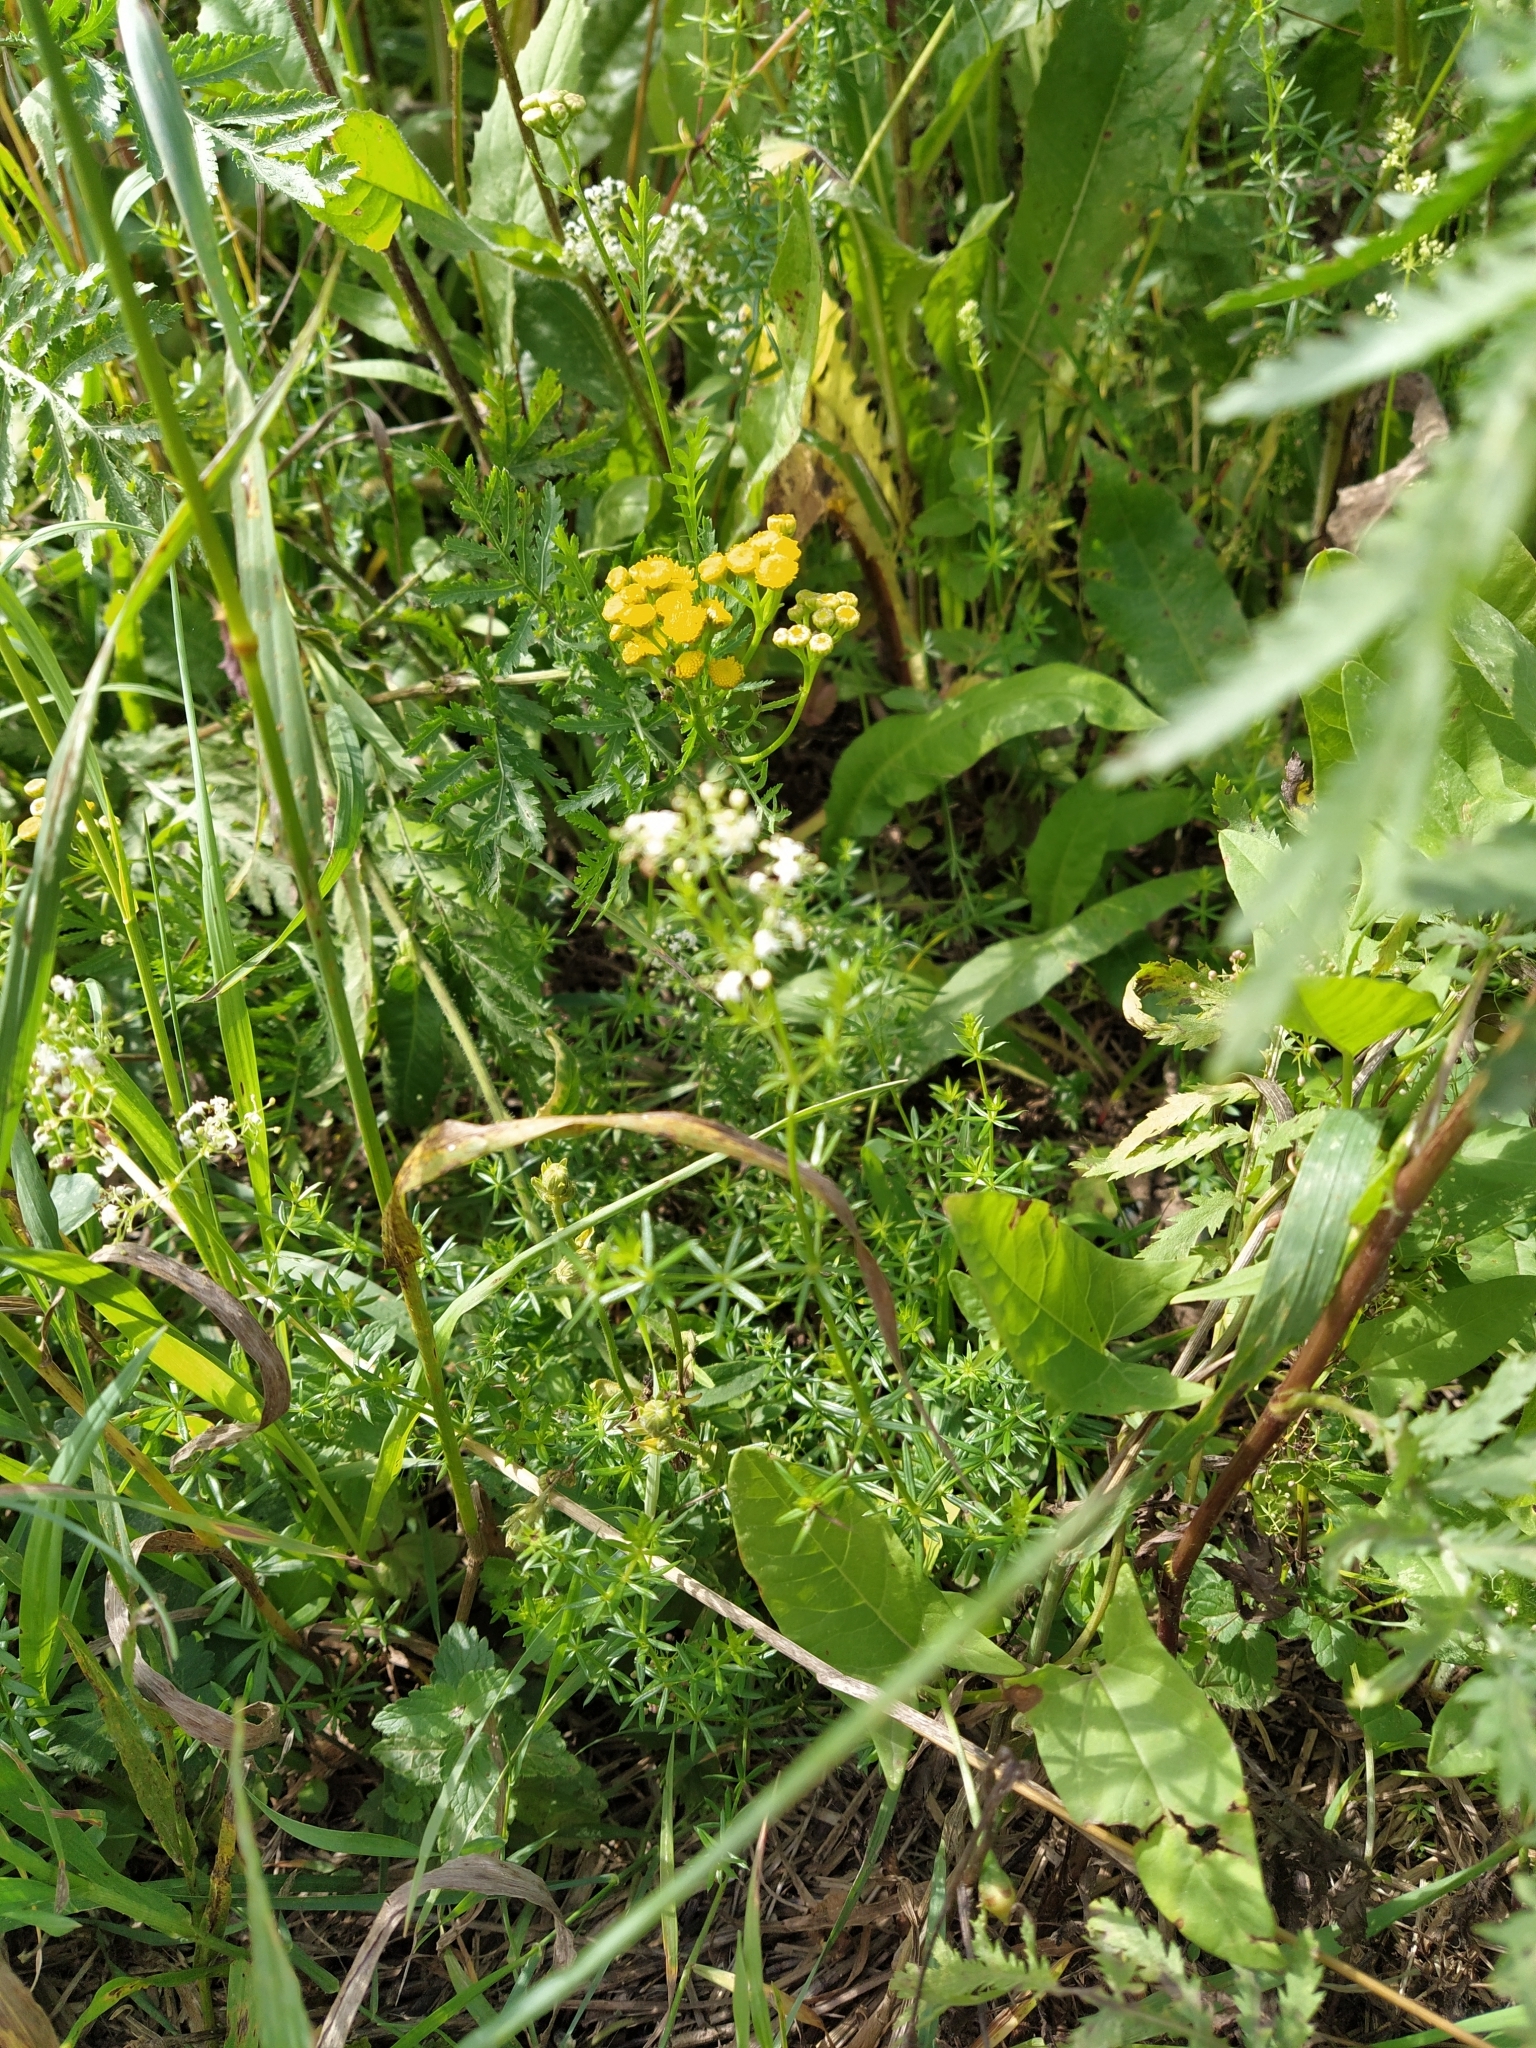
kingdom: Plantae
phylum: Tracheophyta
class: Magnoliopsida
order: Asterales
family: Asteraceae
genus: Tanacetum
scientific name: Tanacetum vulgare
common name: Common tansy
